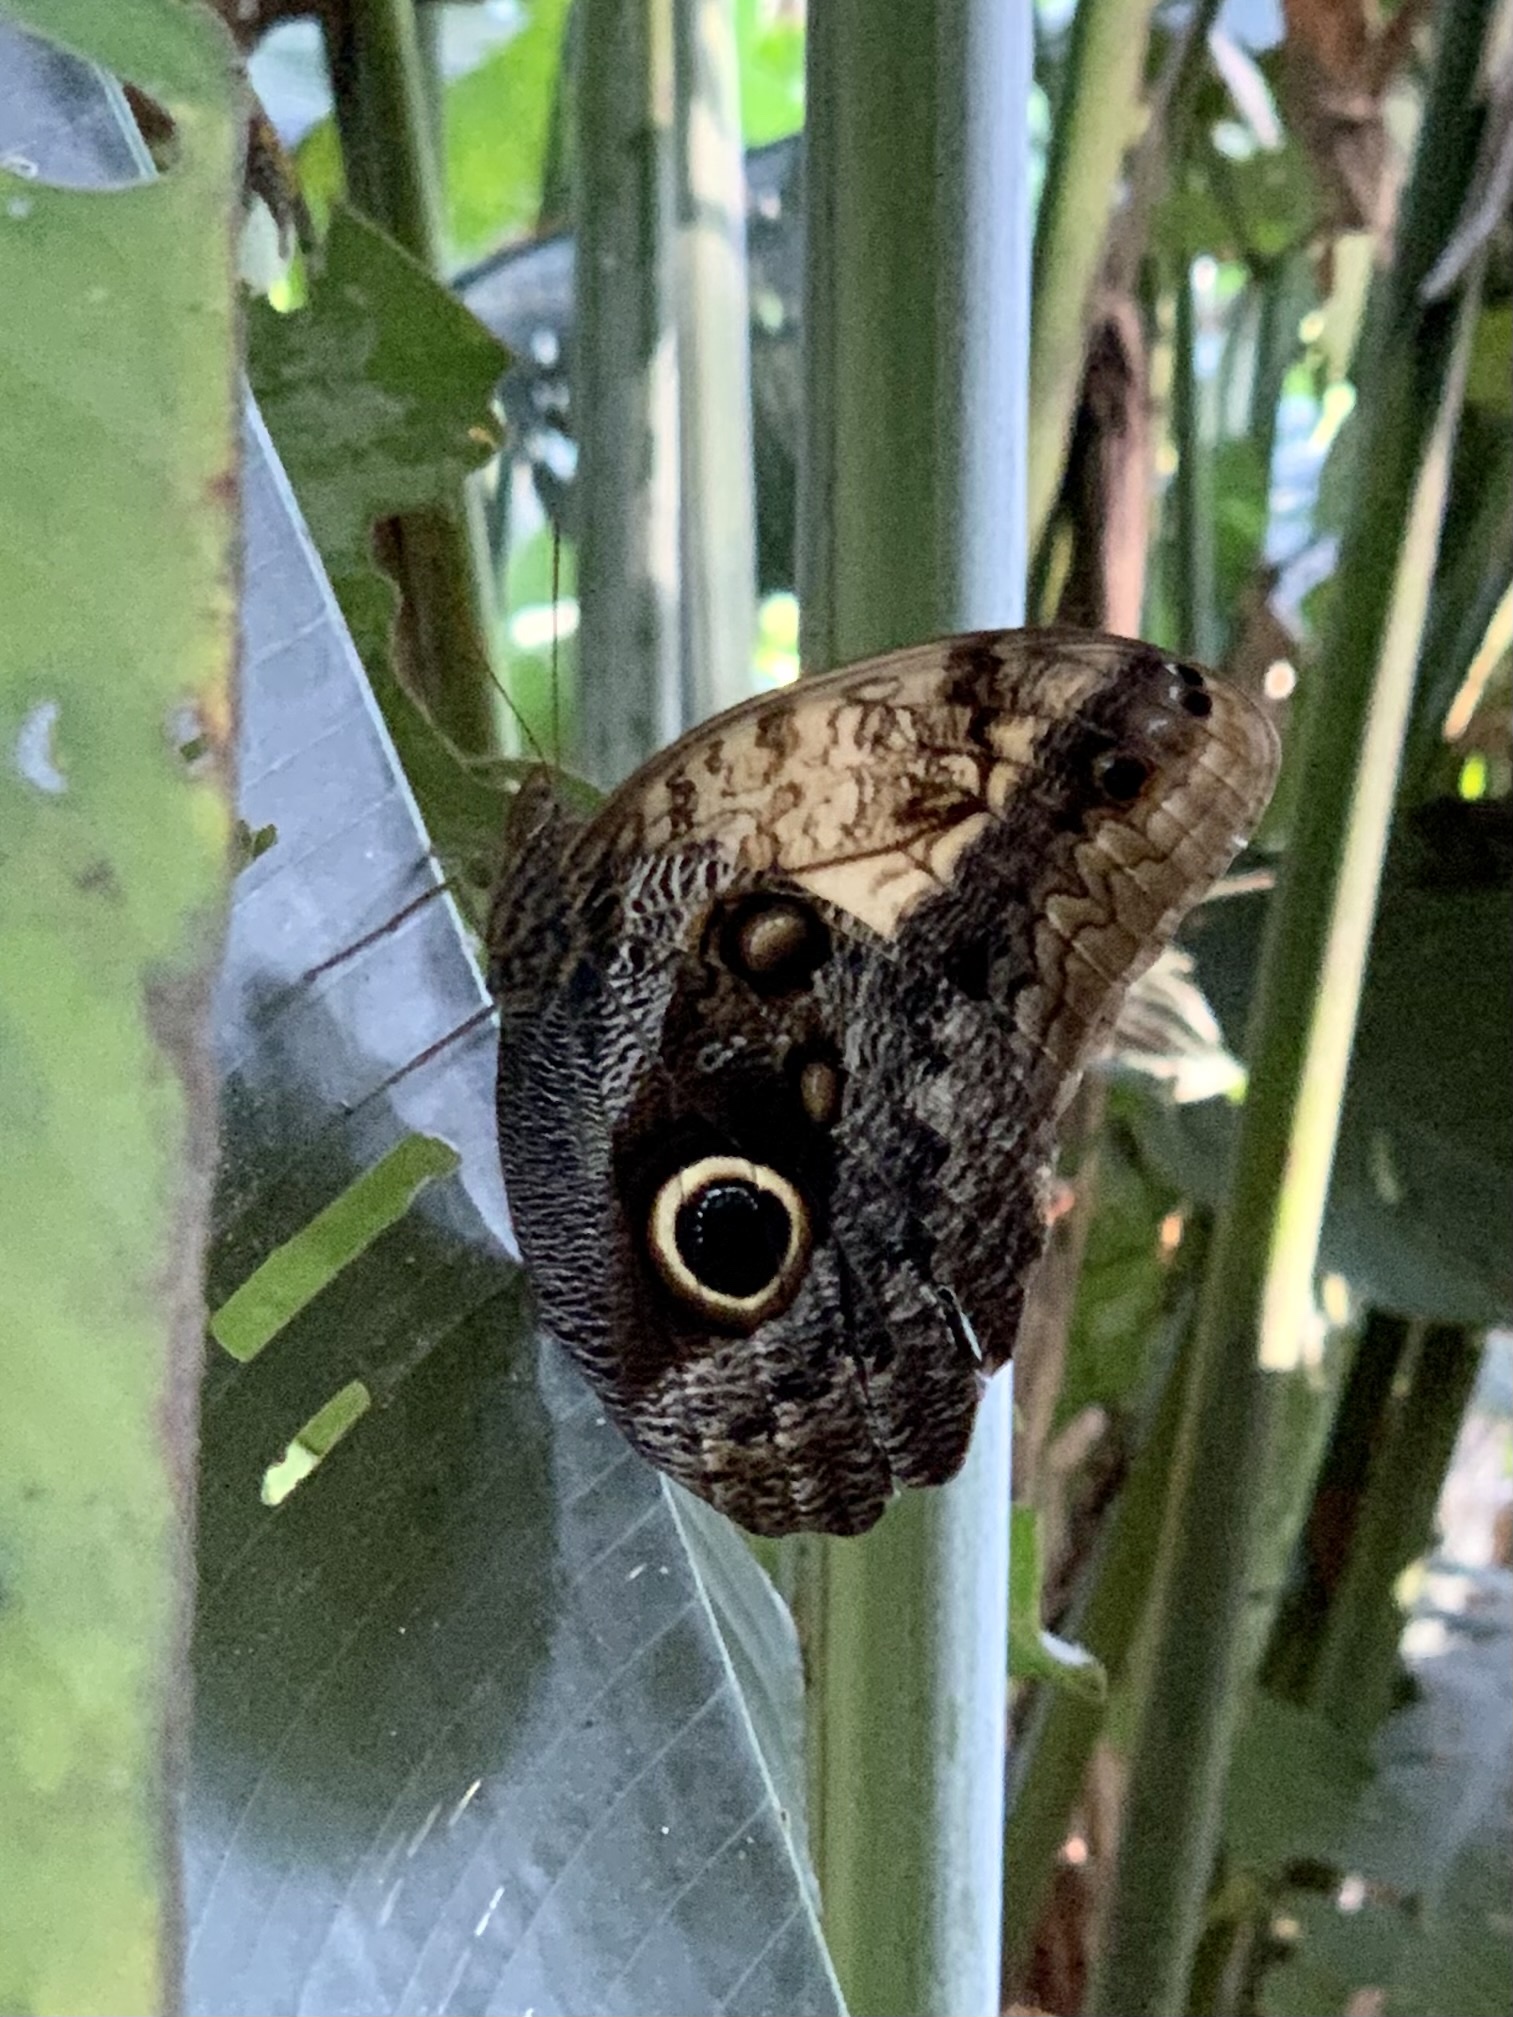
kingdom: Animalia
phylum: Arthropoda
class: Insecta
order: Lepidoptera
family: Nymphalidae
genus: Caligo
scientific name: Caligo telamonius
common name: Pale owl-butterfly
